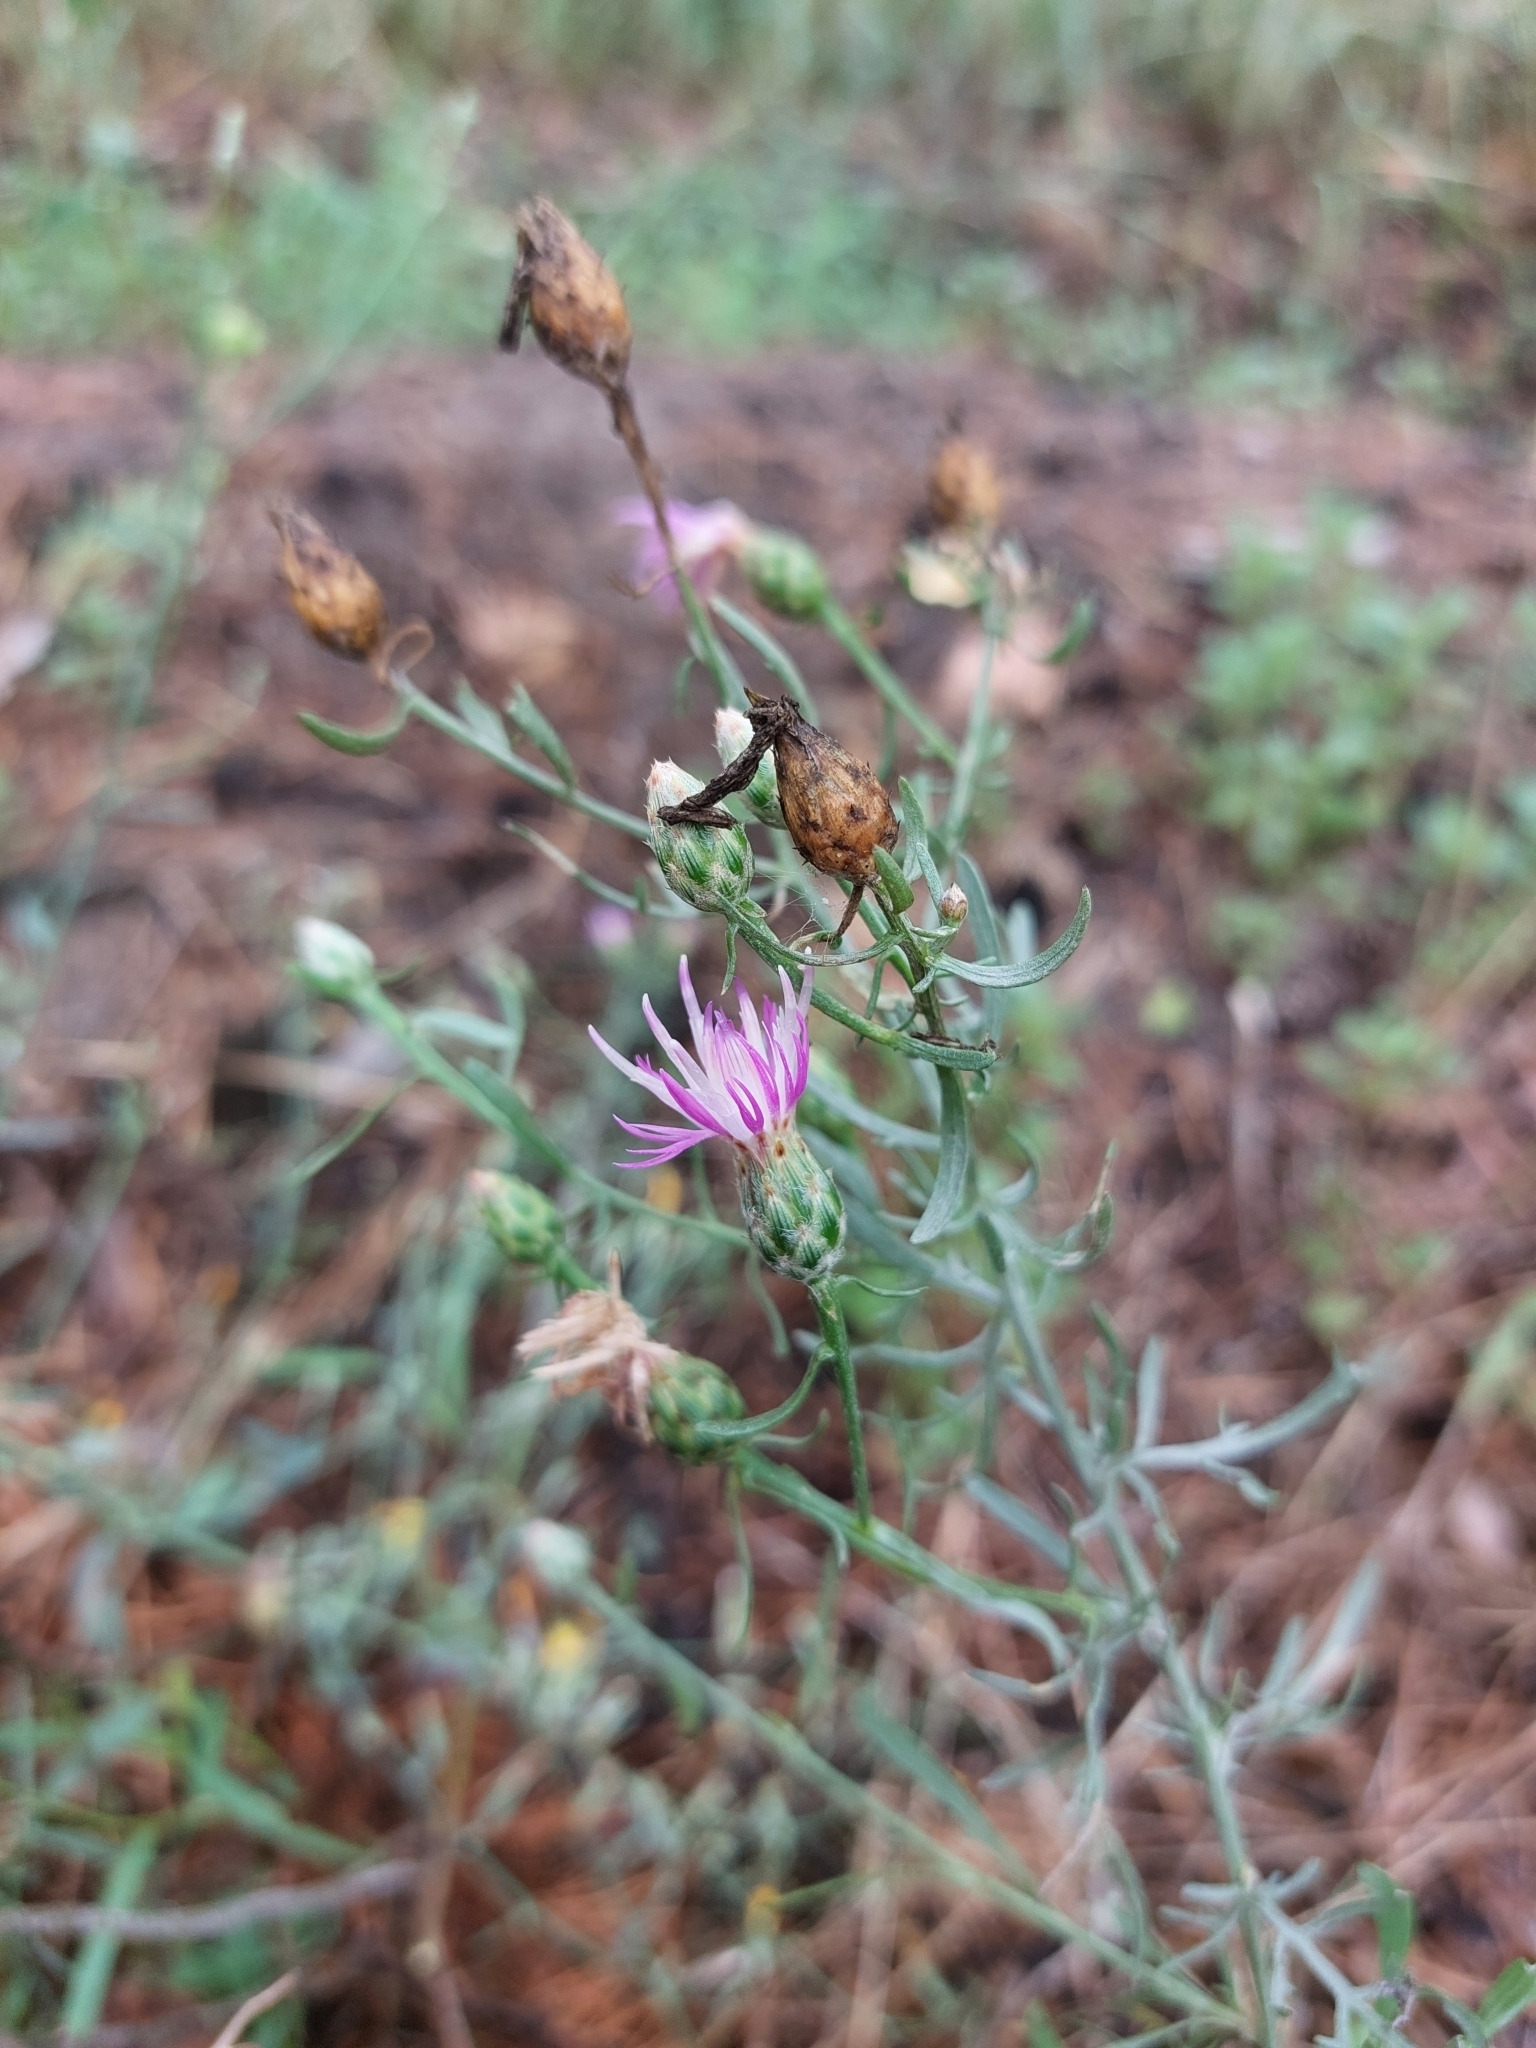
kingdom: Plantae
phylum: Tracheophyta
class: Magnoliopsida
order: Asterales
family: Asteraceae
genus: Centaurea
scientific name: Centaurea borysthenica
